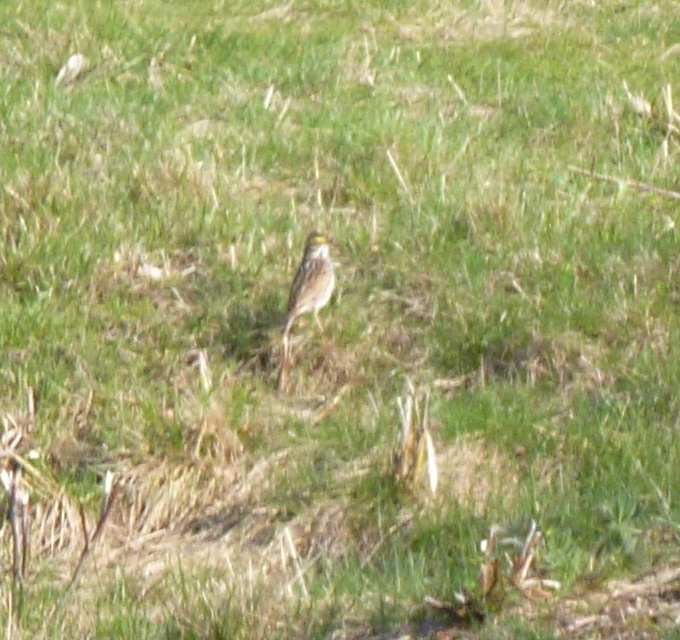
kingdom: Animalia
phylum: Chordata
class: Aves
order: Passeriformes
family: Passerellidae
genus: Passerculus
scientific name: Passerculus sandwichensis
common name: Savannah sparrow
